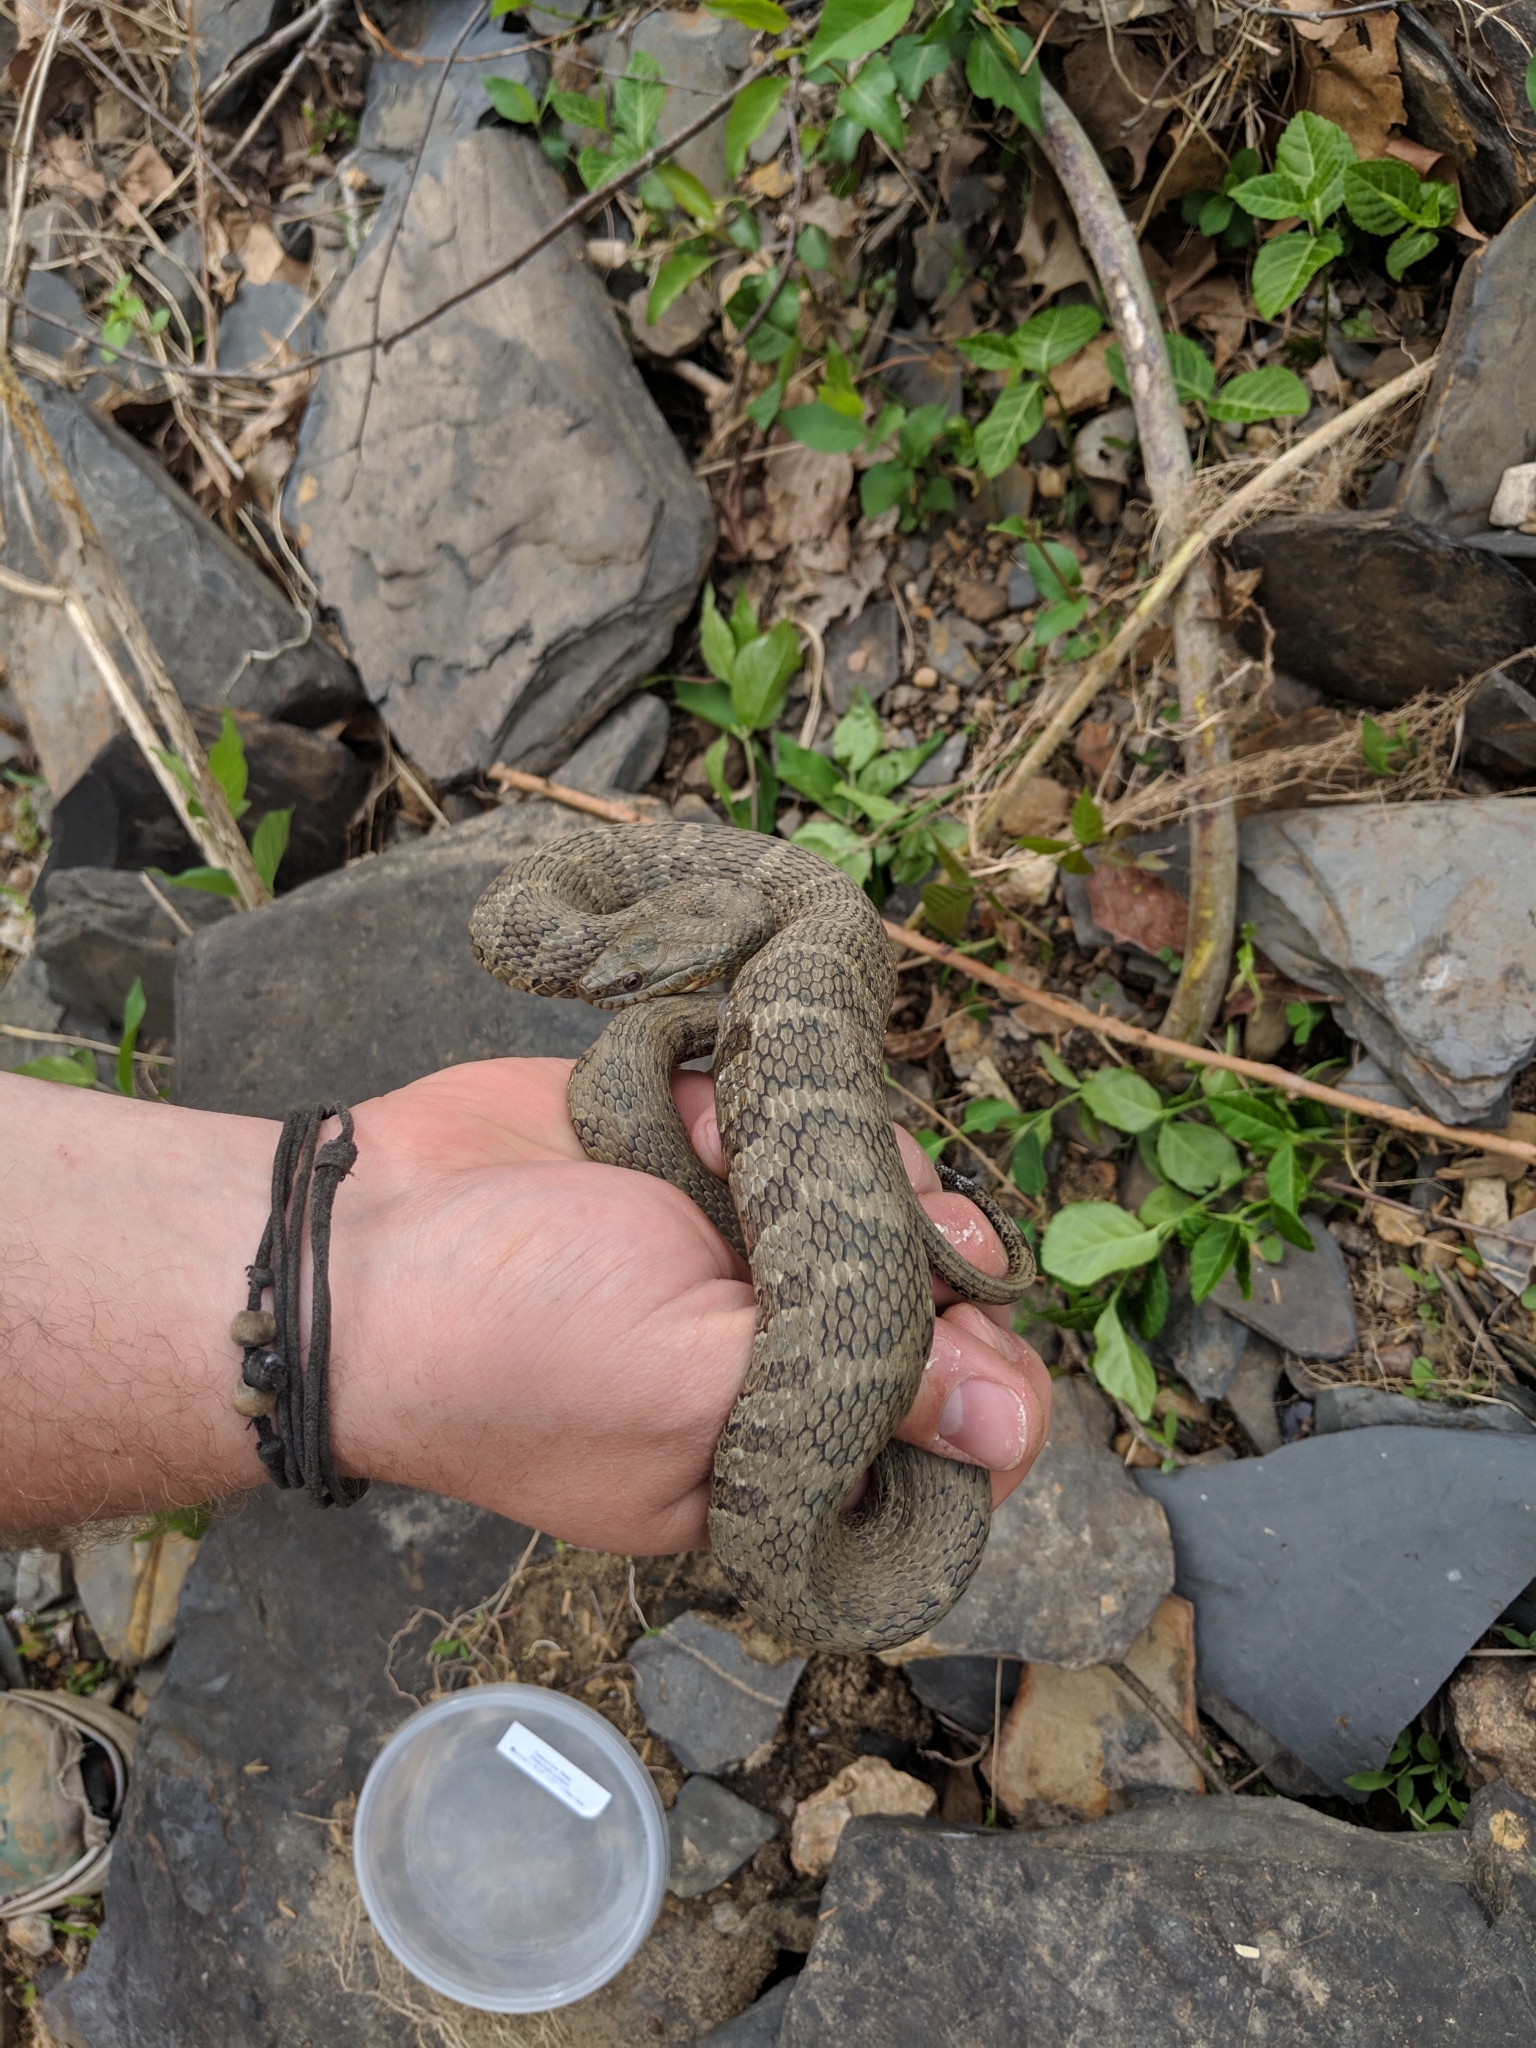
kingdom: Animalia
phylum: Chordata
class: Squamata
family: Colubridae
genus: Nerodia
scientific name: Nerodia sipedon
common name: Northern water snake
